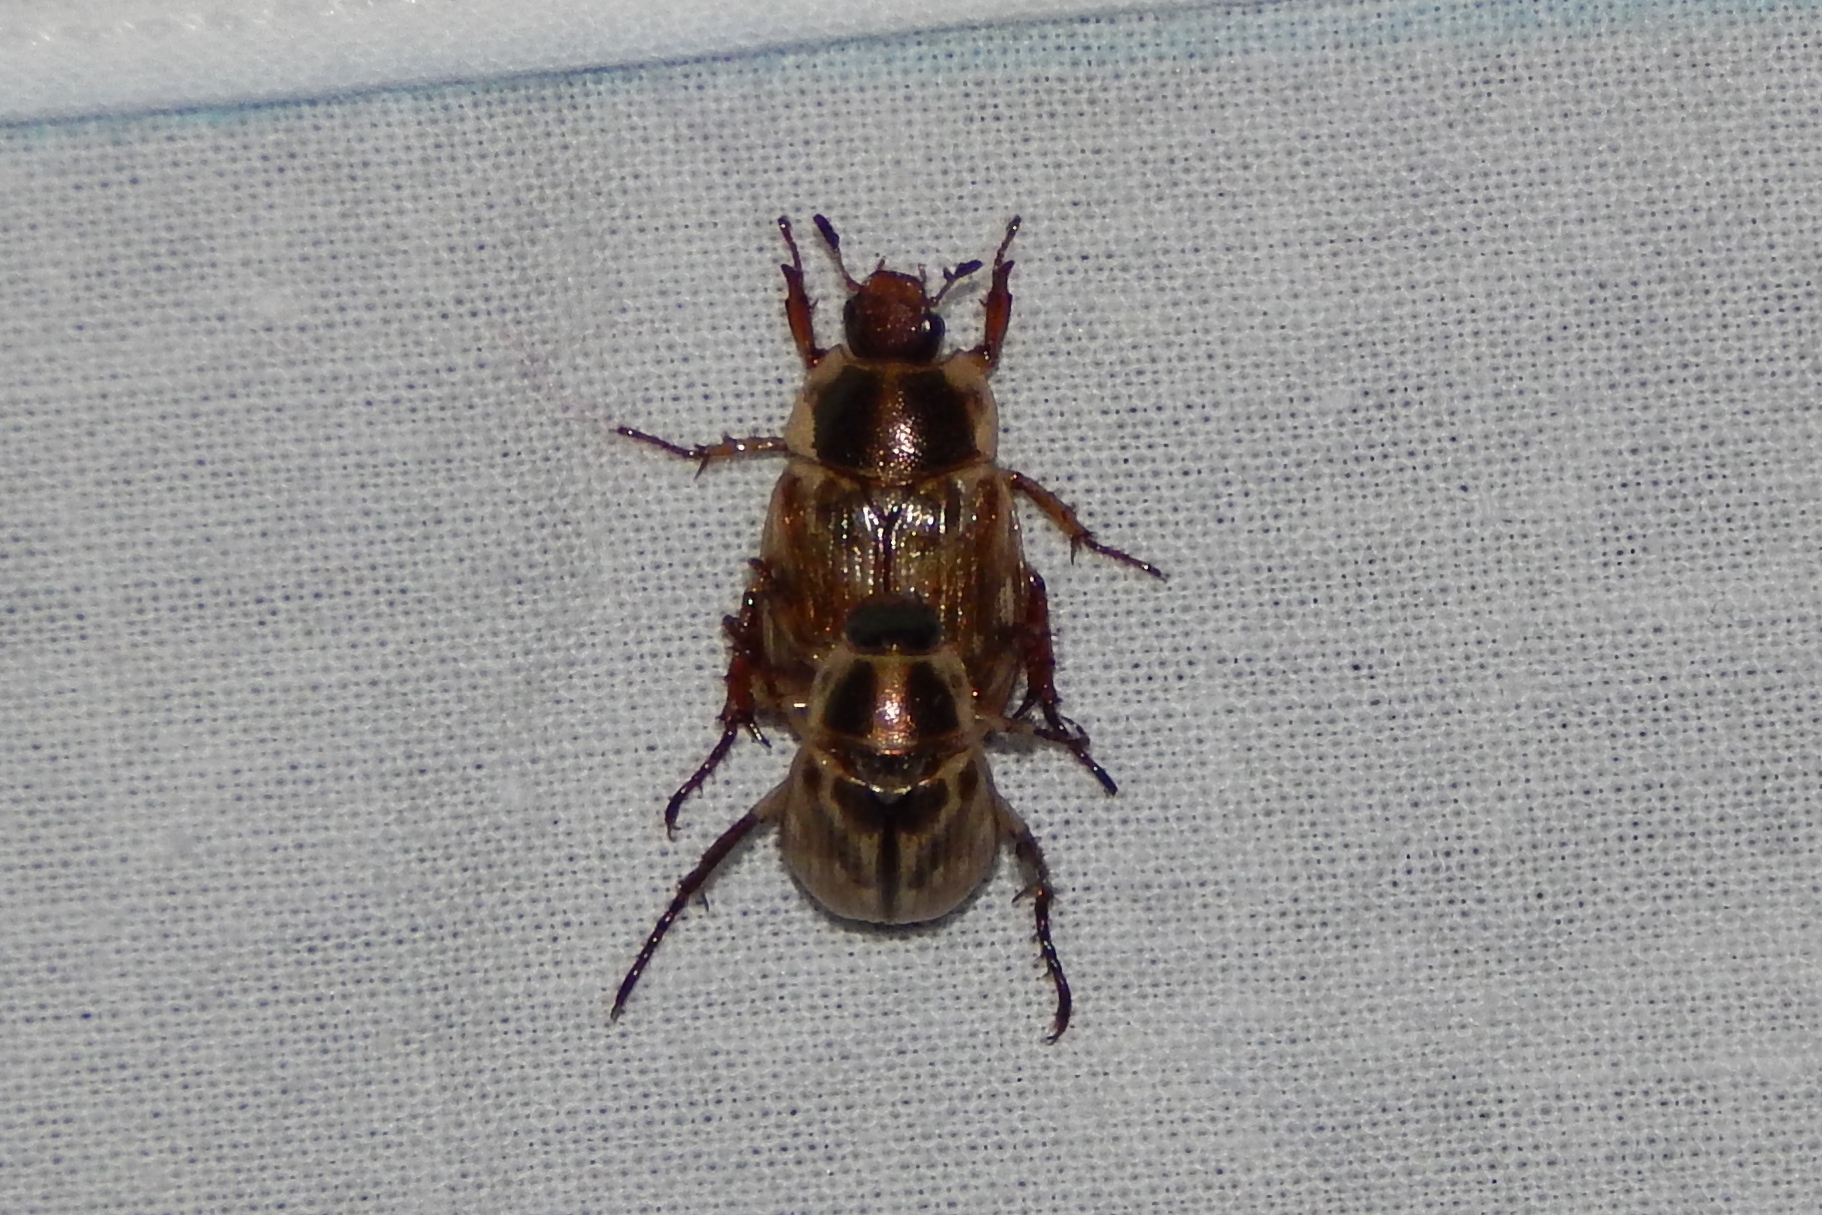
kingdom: Animalia
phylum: Arthropoda
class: Insecta
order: Coleoptera
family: Scarabaeidae
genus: Exomala
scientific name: Exomala orientalis
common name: Oriental beetle
